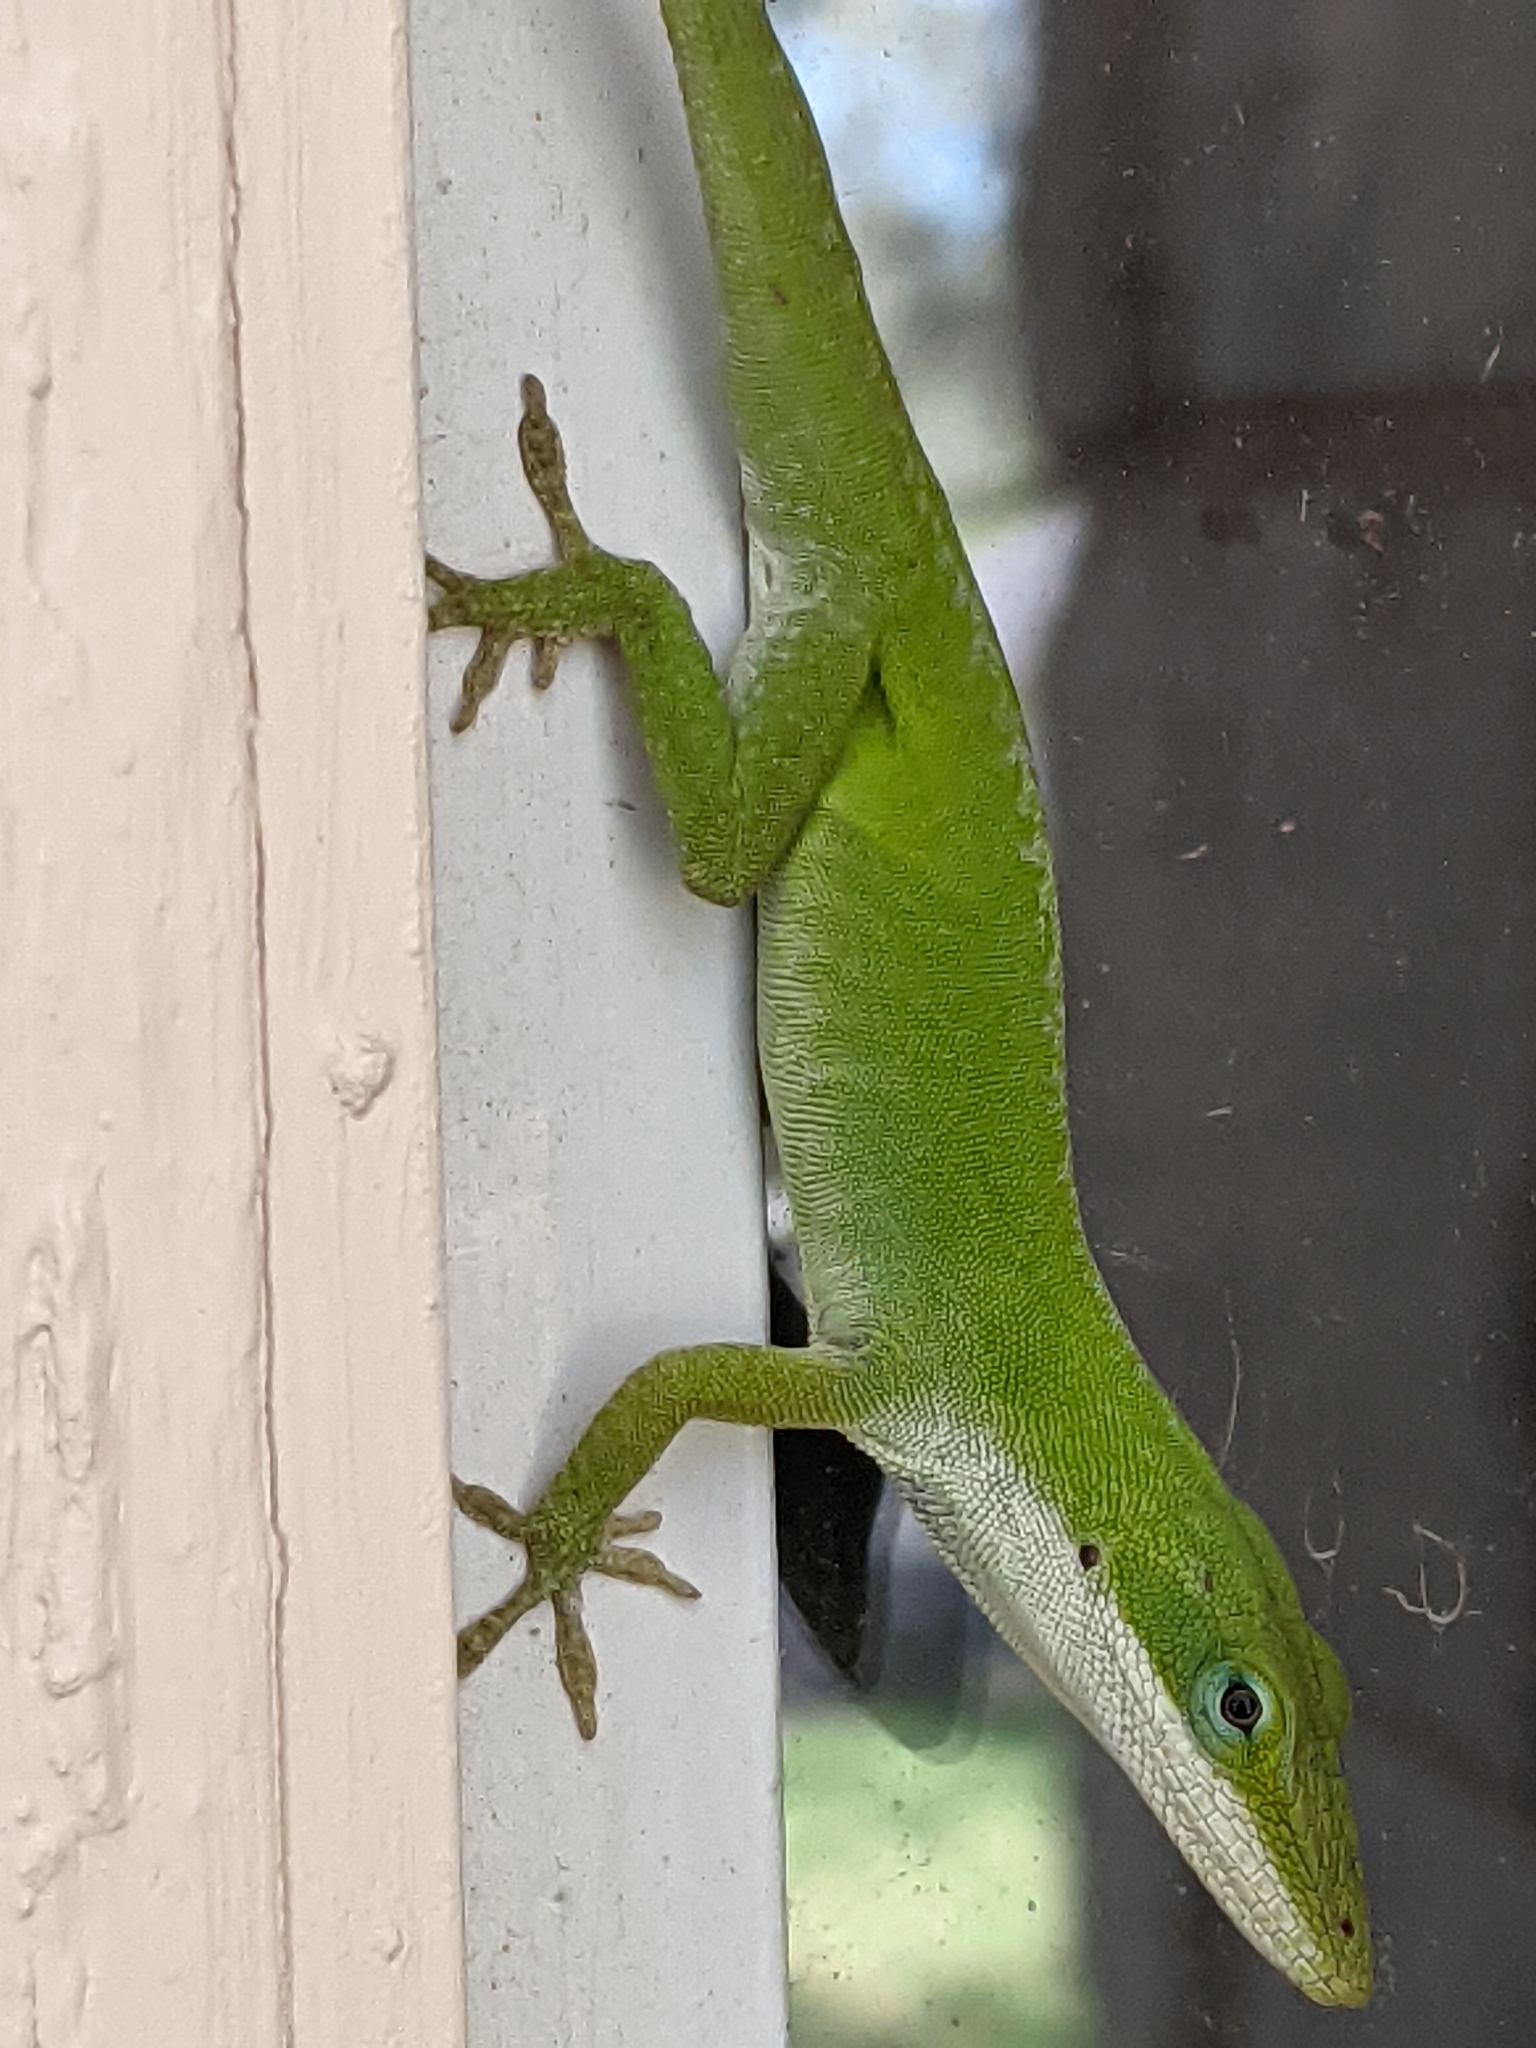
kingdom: Animalia
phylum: Chordata
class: Squamata
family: Dactyloidae
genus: Anolis
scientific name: Anolis carolinensis
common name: Green anole
